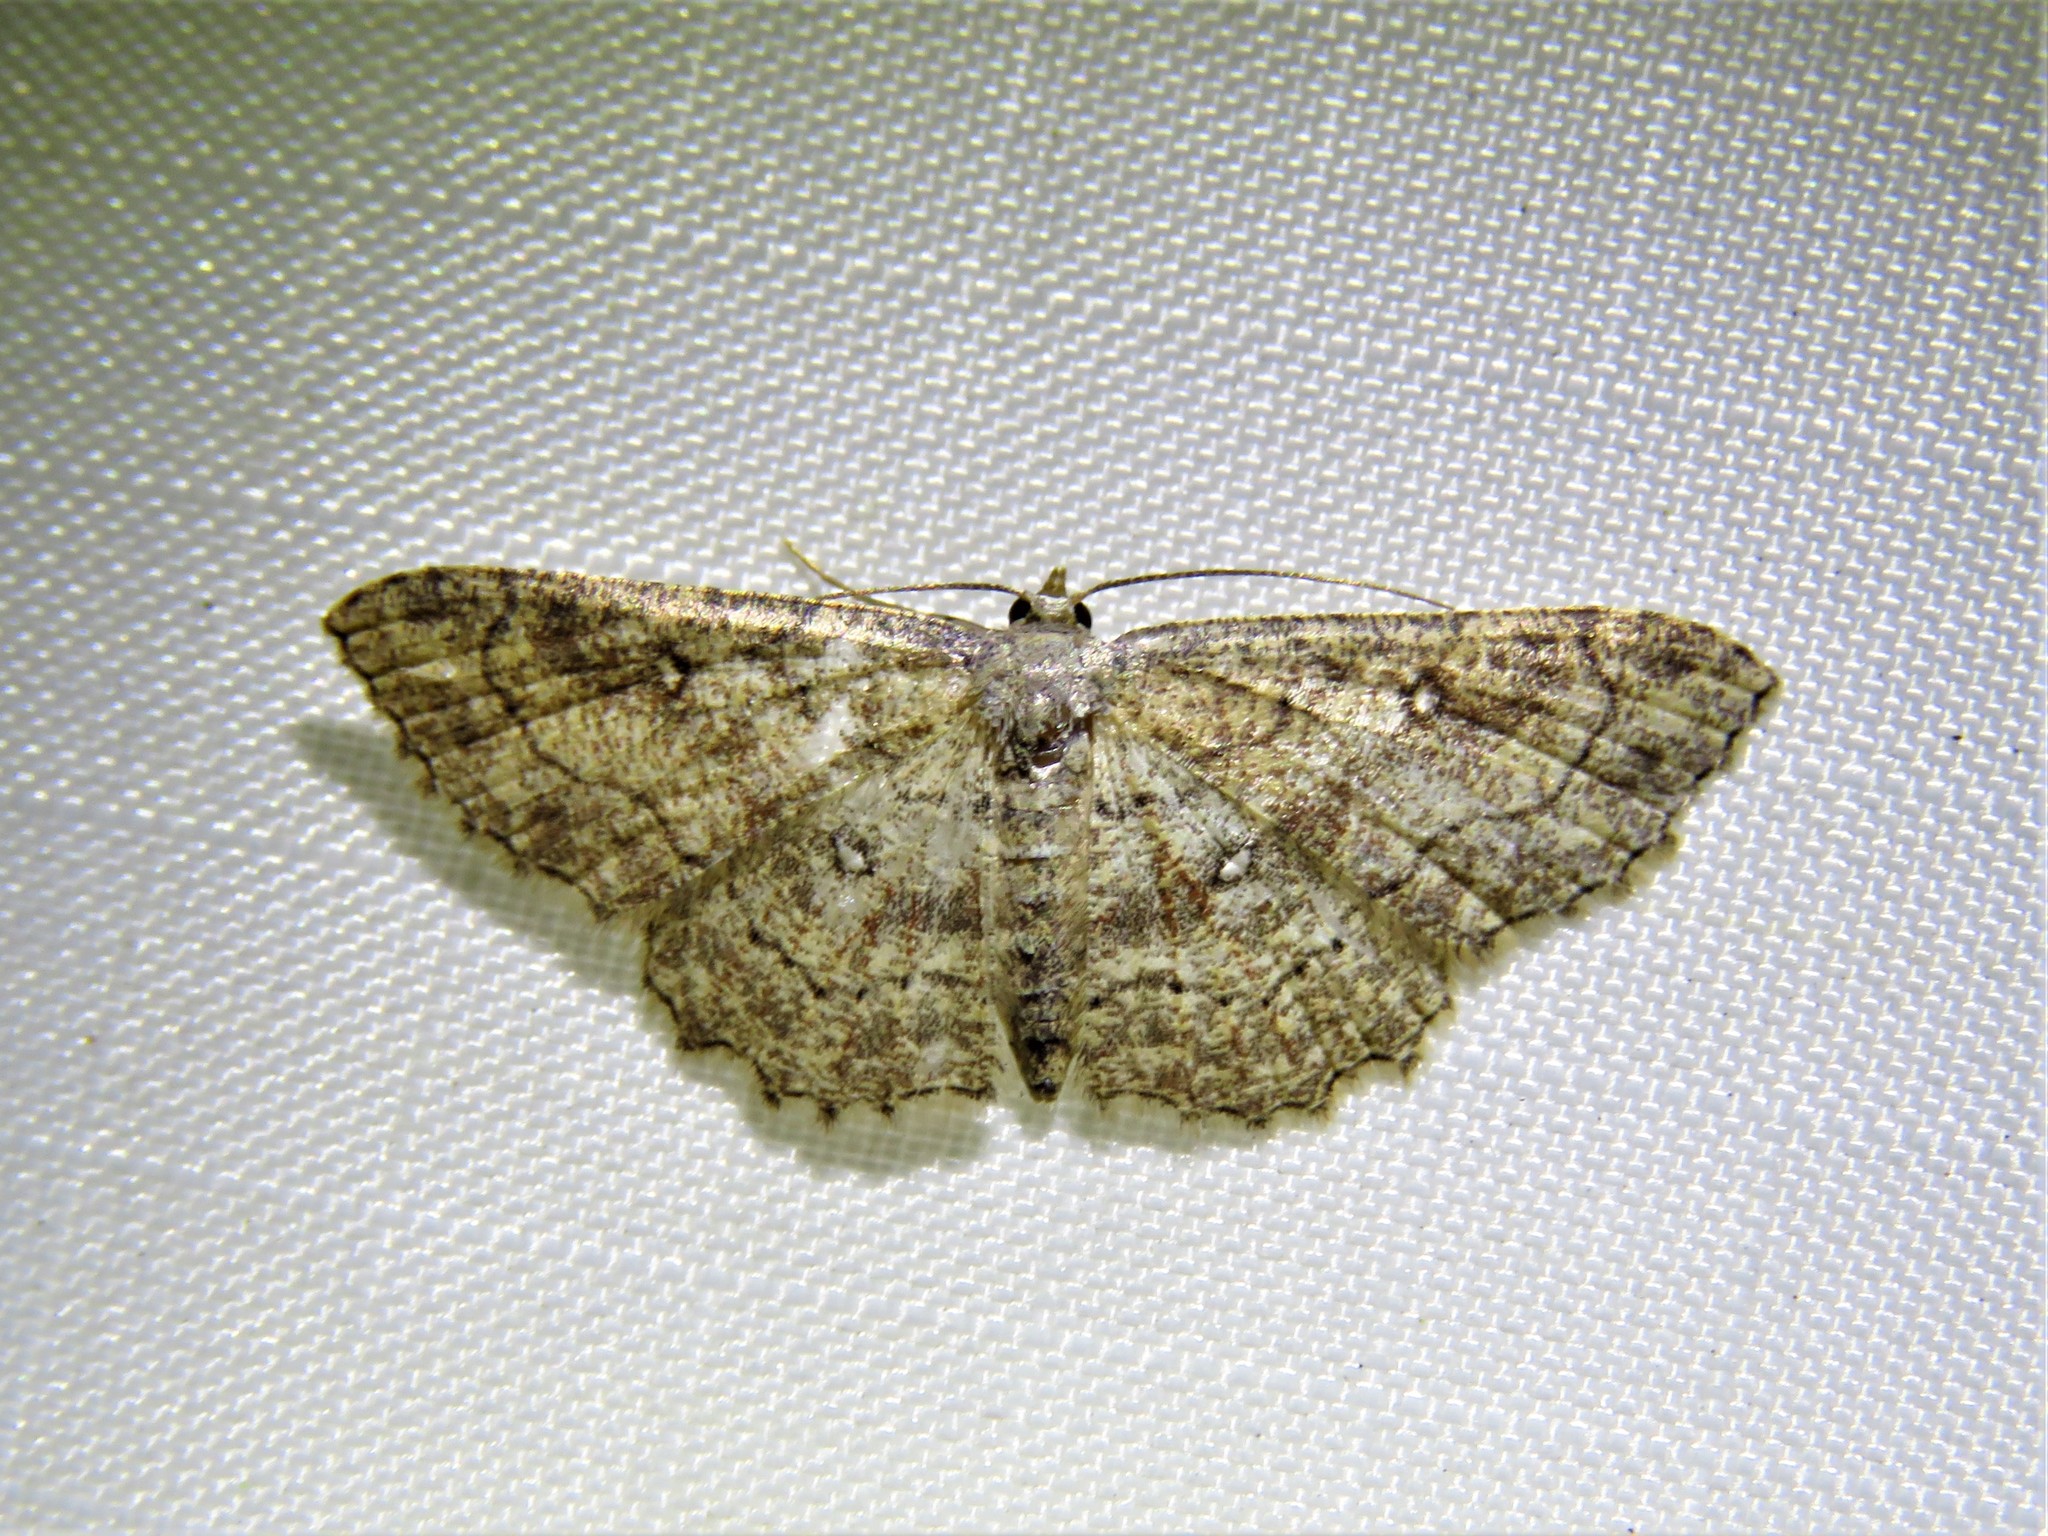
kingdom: Animalia
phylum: Arthropoda
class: Insecta
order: Lepidoptera
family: Geometridae
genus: Cyclophora
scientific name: Cyclophora nanaria
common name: Cankerworm
